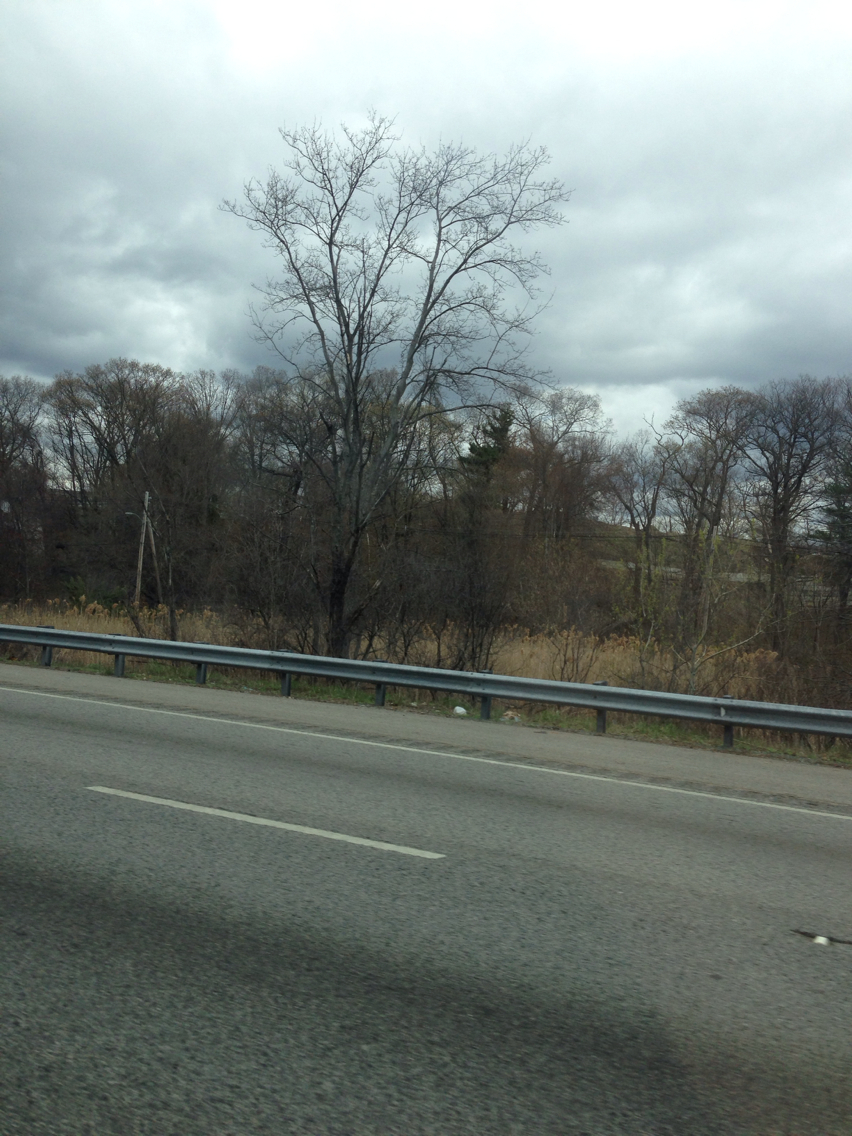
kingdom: Plantae
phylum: Tracheophyta
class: Liliopsida
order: Poales
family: Poaceae
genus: Phragmites
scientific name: Phragmites australis
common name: Common reed
